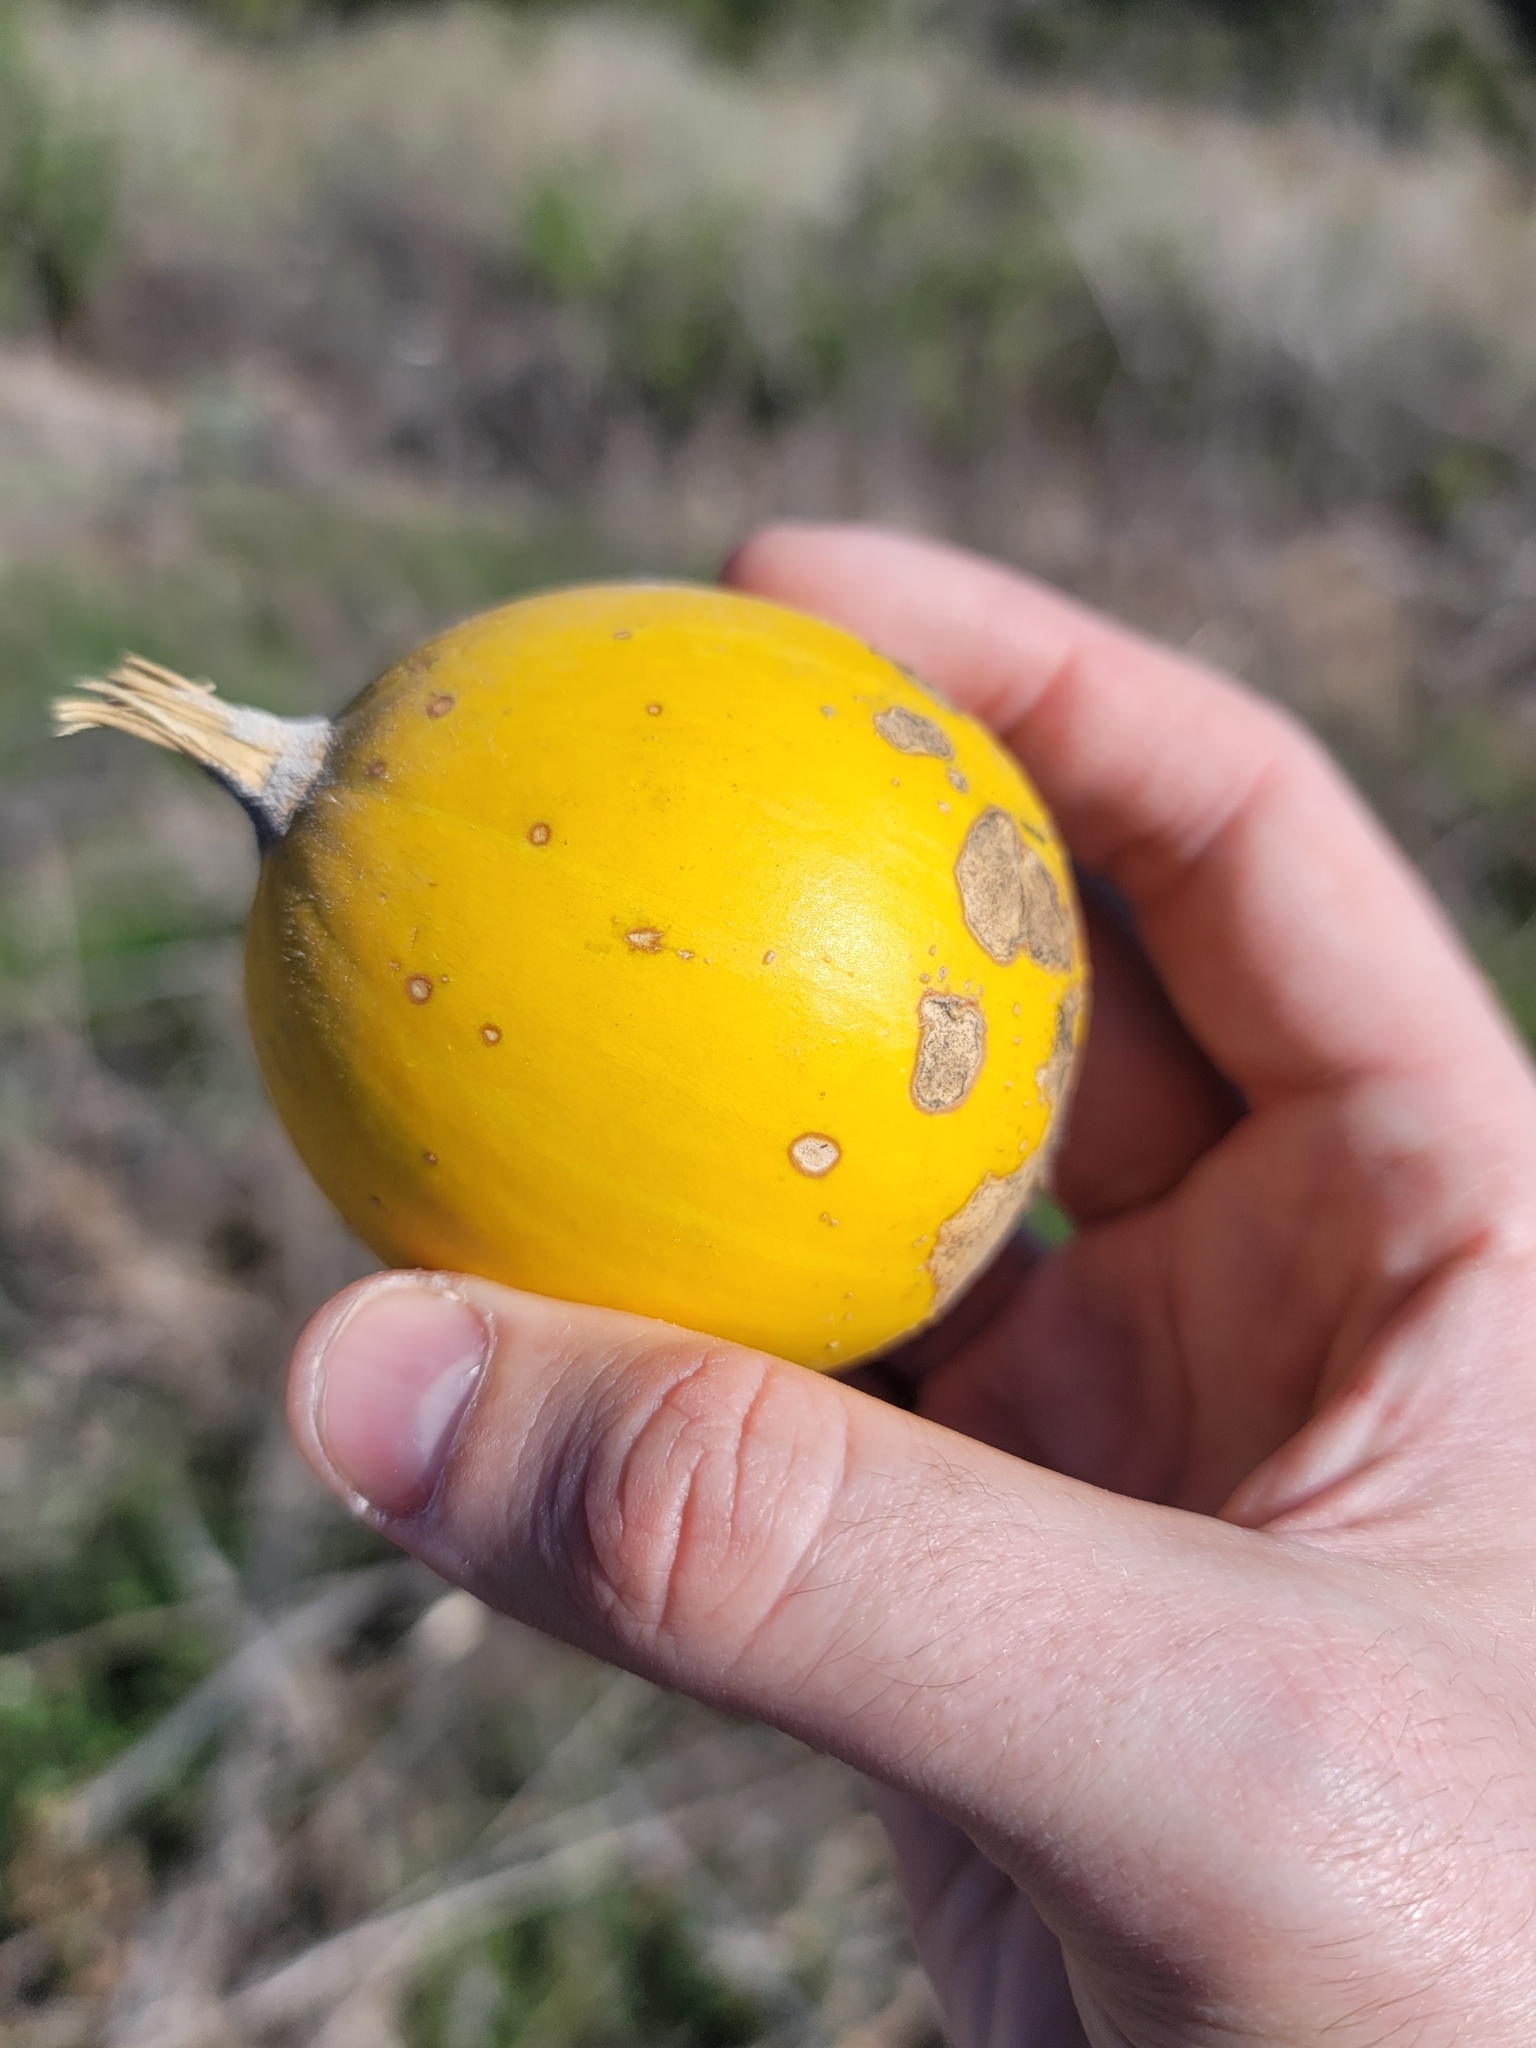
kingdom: Plantae
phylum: Tracheophyta
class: Magnoliopsida
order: Cucurbitales
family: Cucurbitaceae
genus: Cucurbita
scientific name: Cucurbita foetidissima
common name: Buffalo gourd
